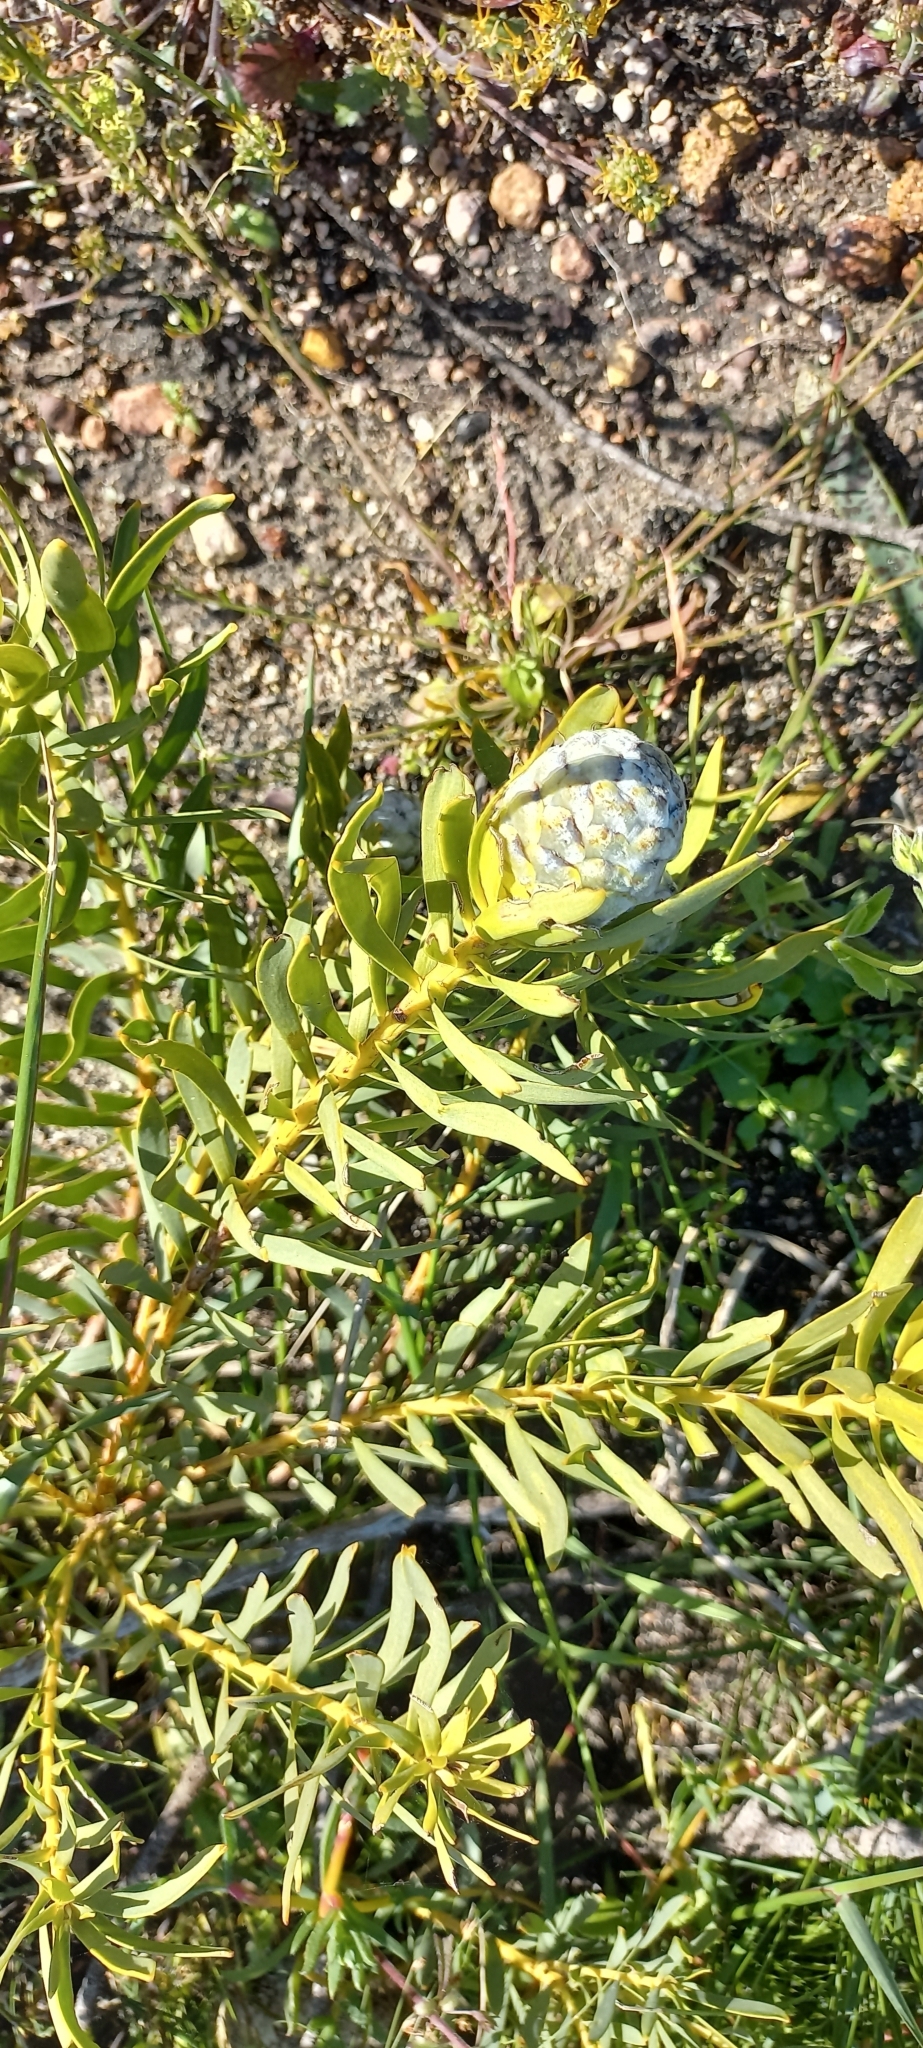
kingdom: Plantae
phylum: Tracheophyta
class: Magnoliopsida
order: Proteales
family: Proteaceae
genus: Leucadendron
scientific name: Leucadendron salignum
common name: Common sunshine conebush
